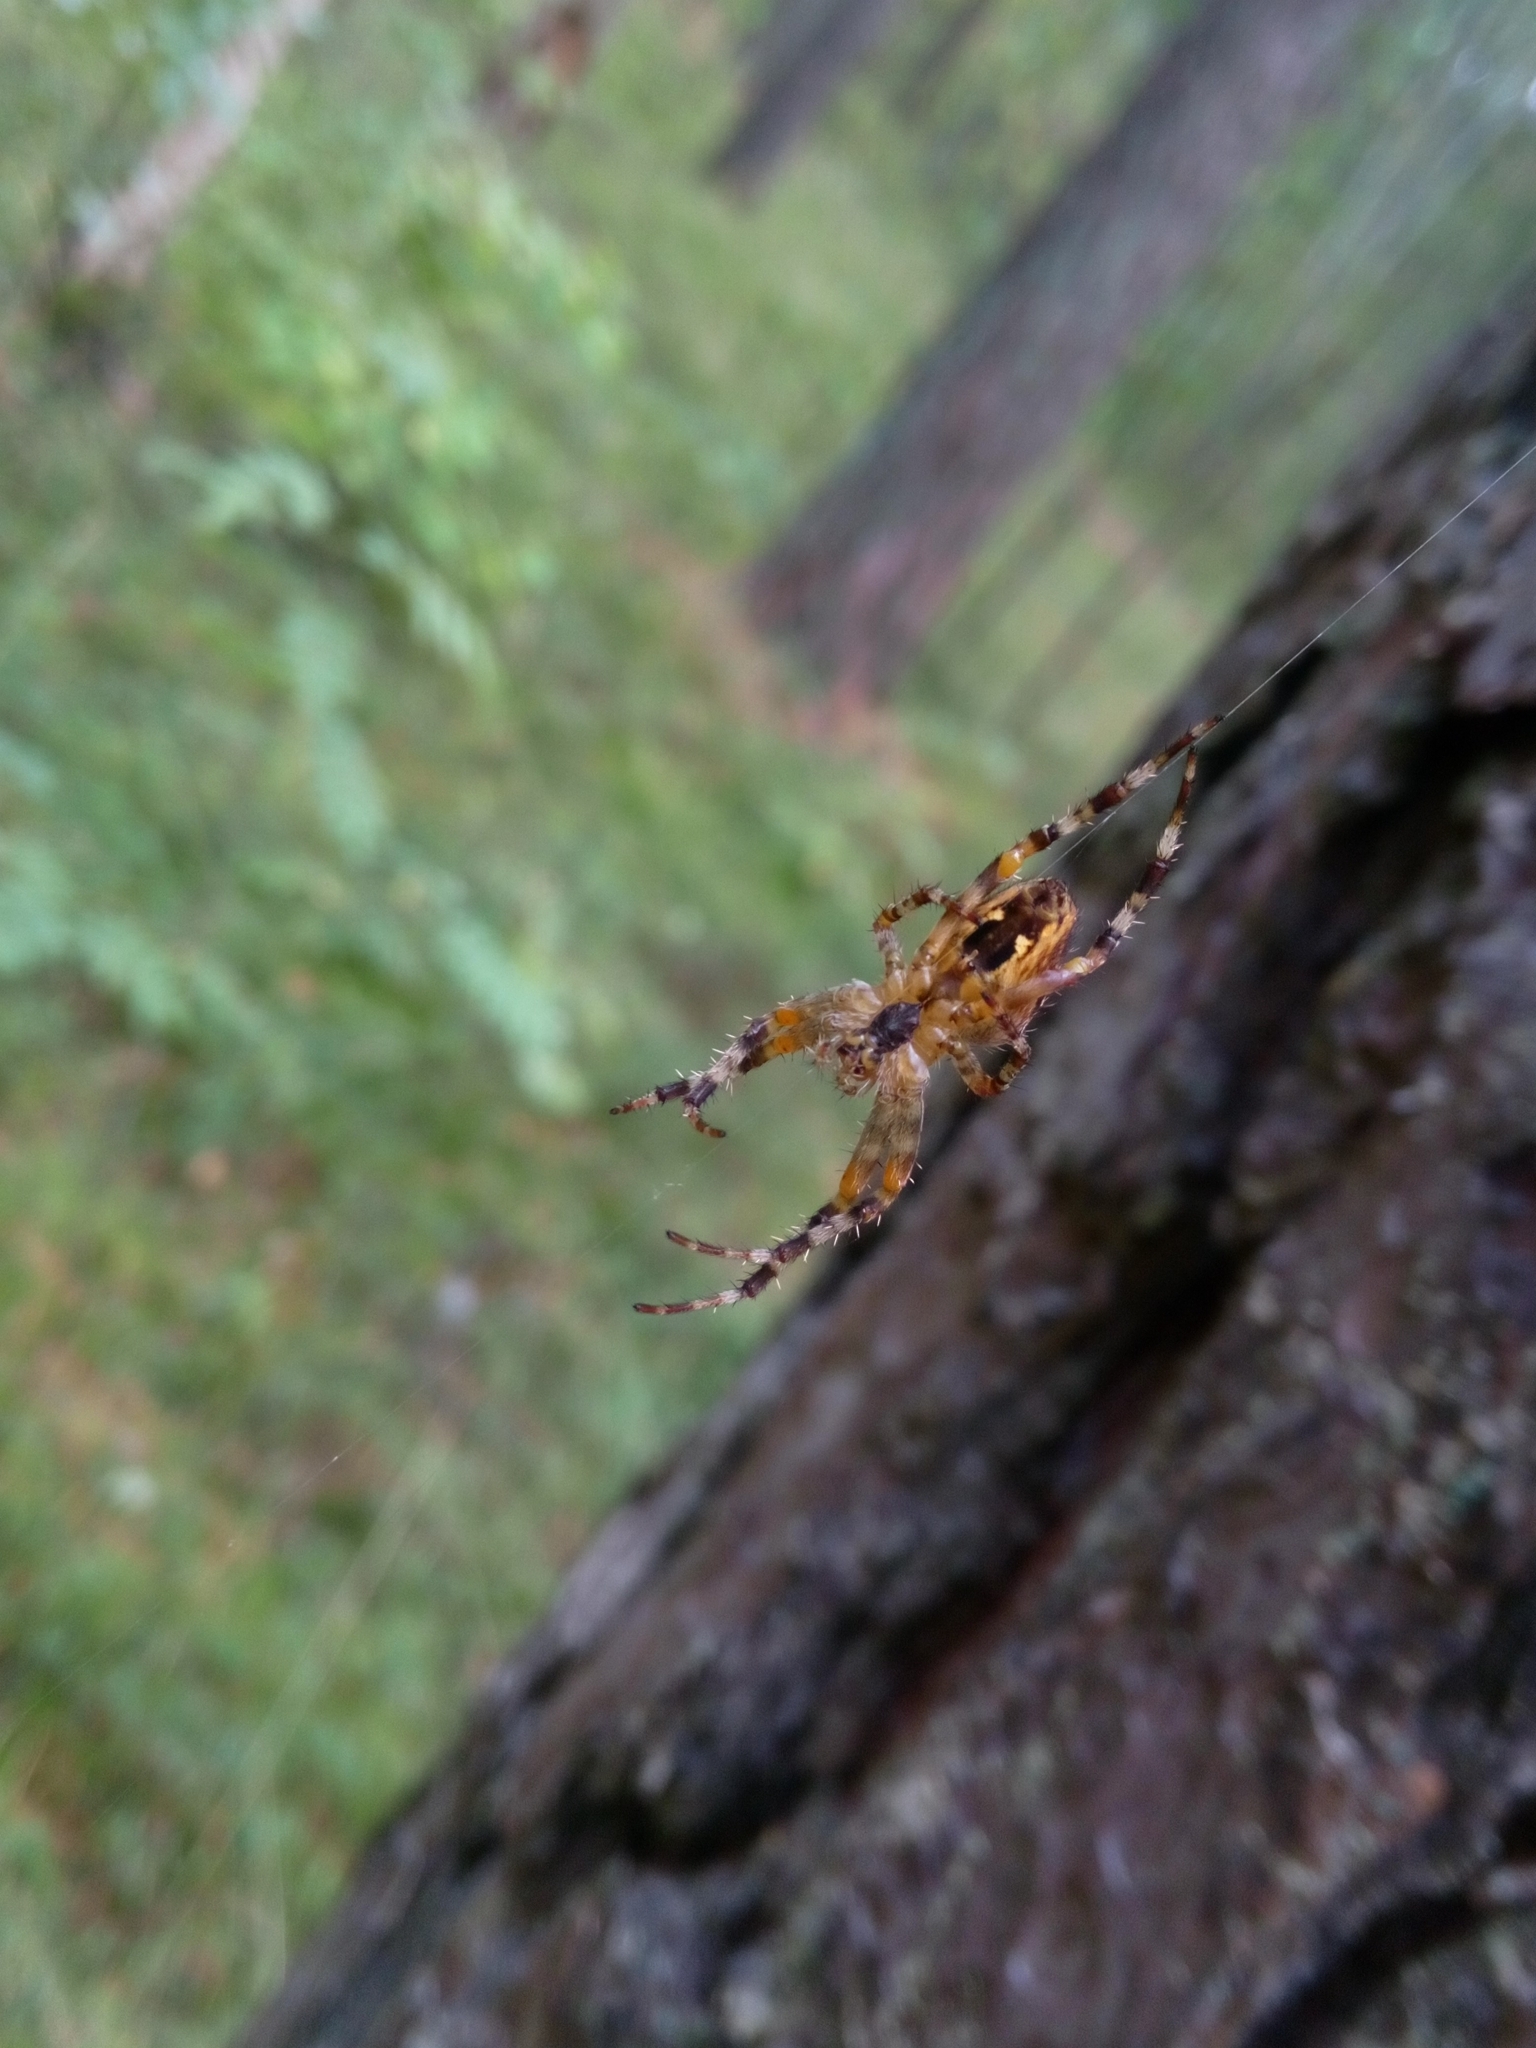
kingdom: Animalia
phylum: Arthropoda
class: Arachnida
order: Araneae
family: Araneidae
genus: Araneus
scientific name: Araneus diadematus
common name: Cross orbweaver
